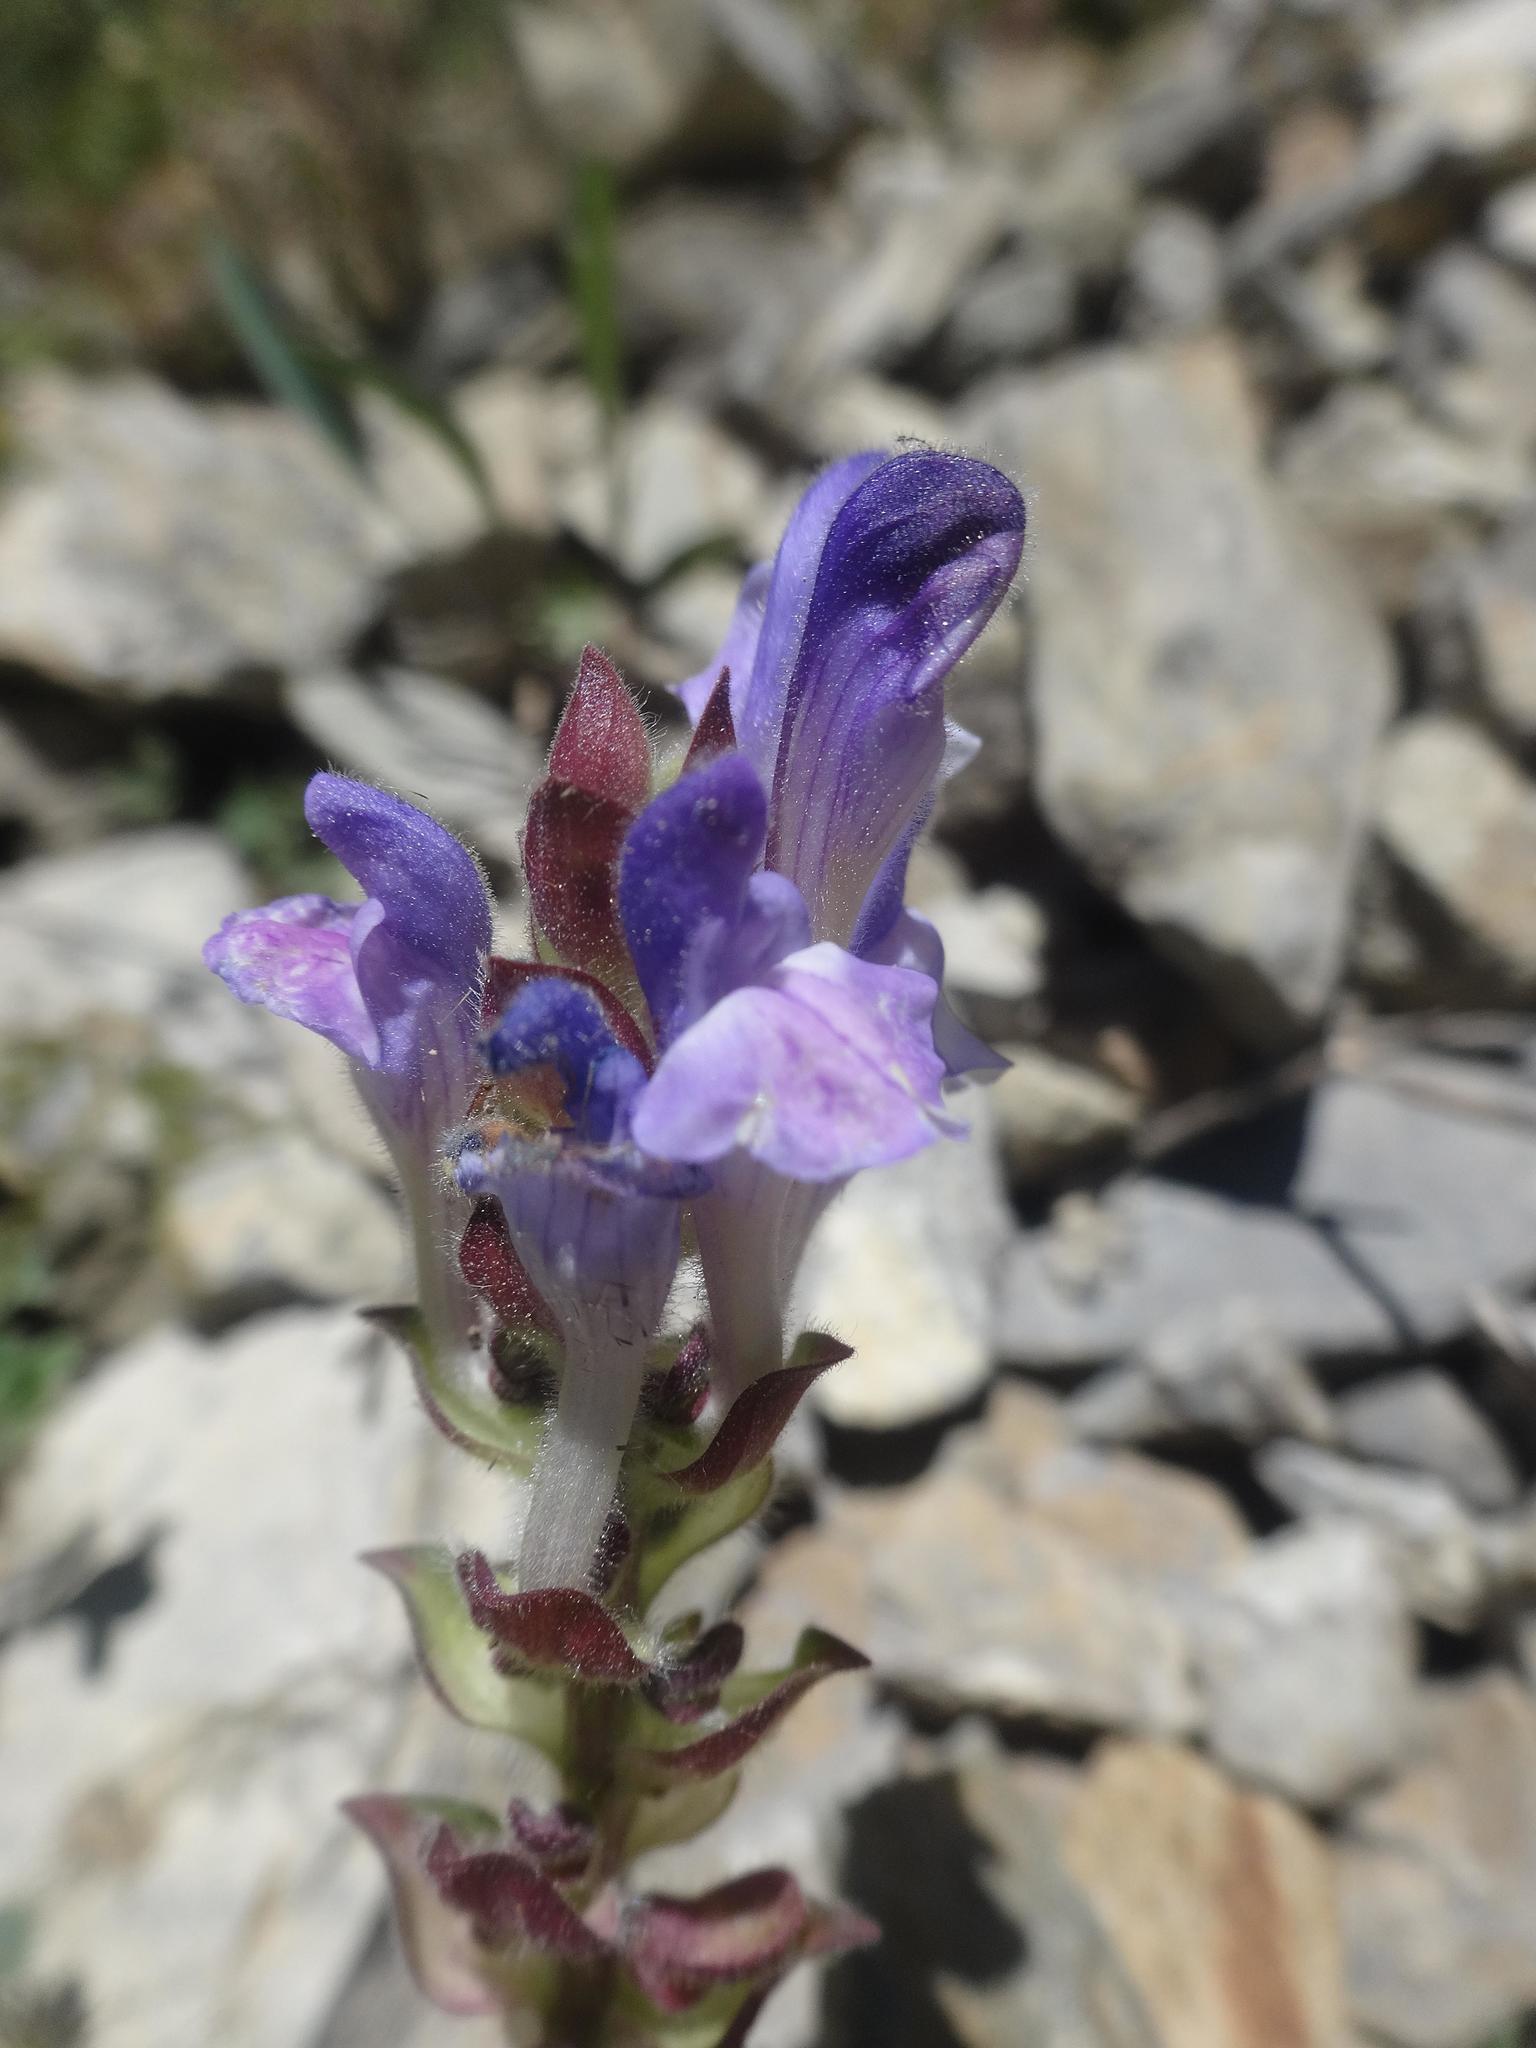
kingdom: Plantae
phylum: Tracheophyta
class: Magnoliopsida
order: Lamiales
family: Lamiaceae
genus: Prunella
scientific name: Prunella grandiflora
